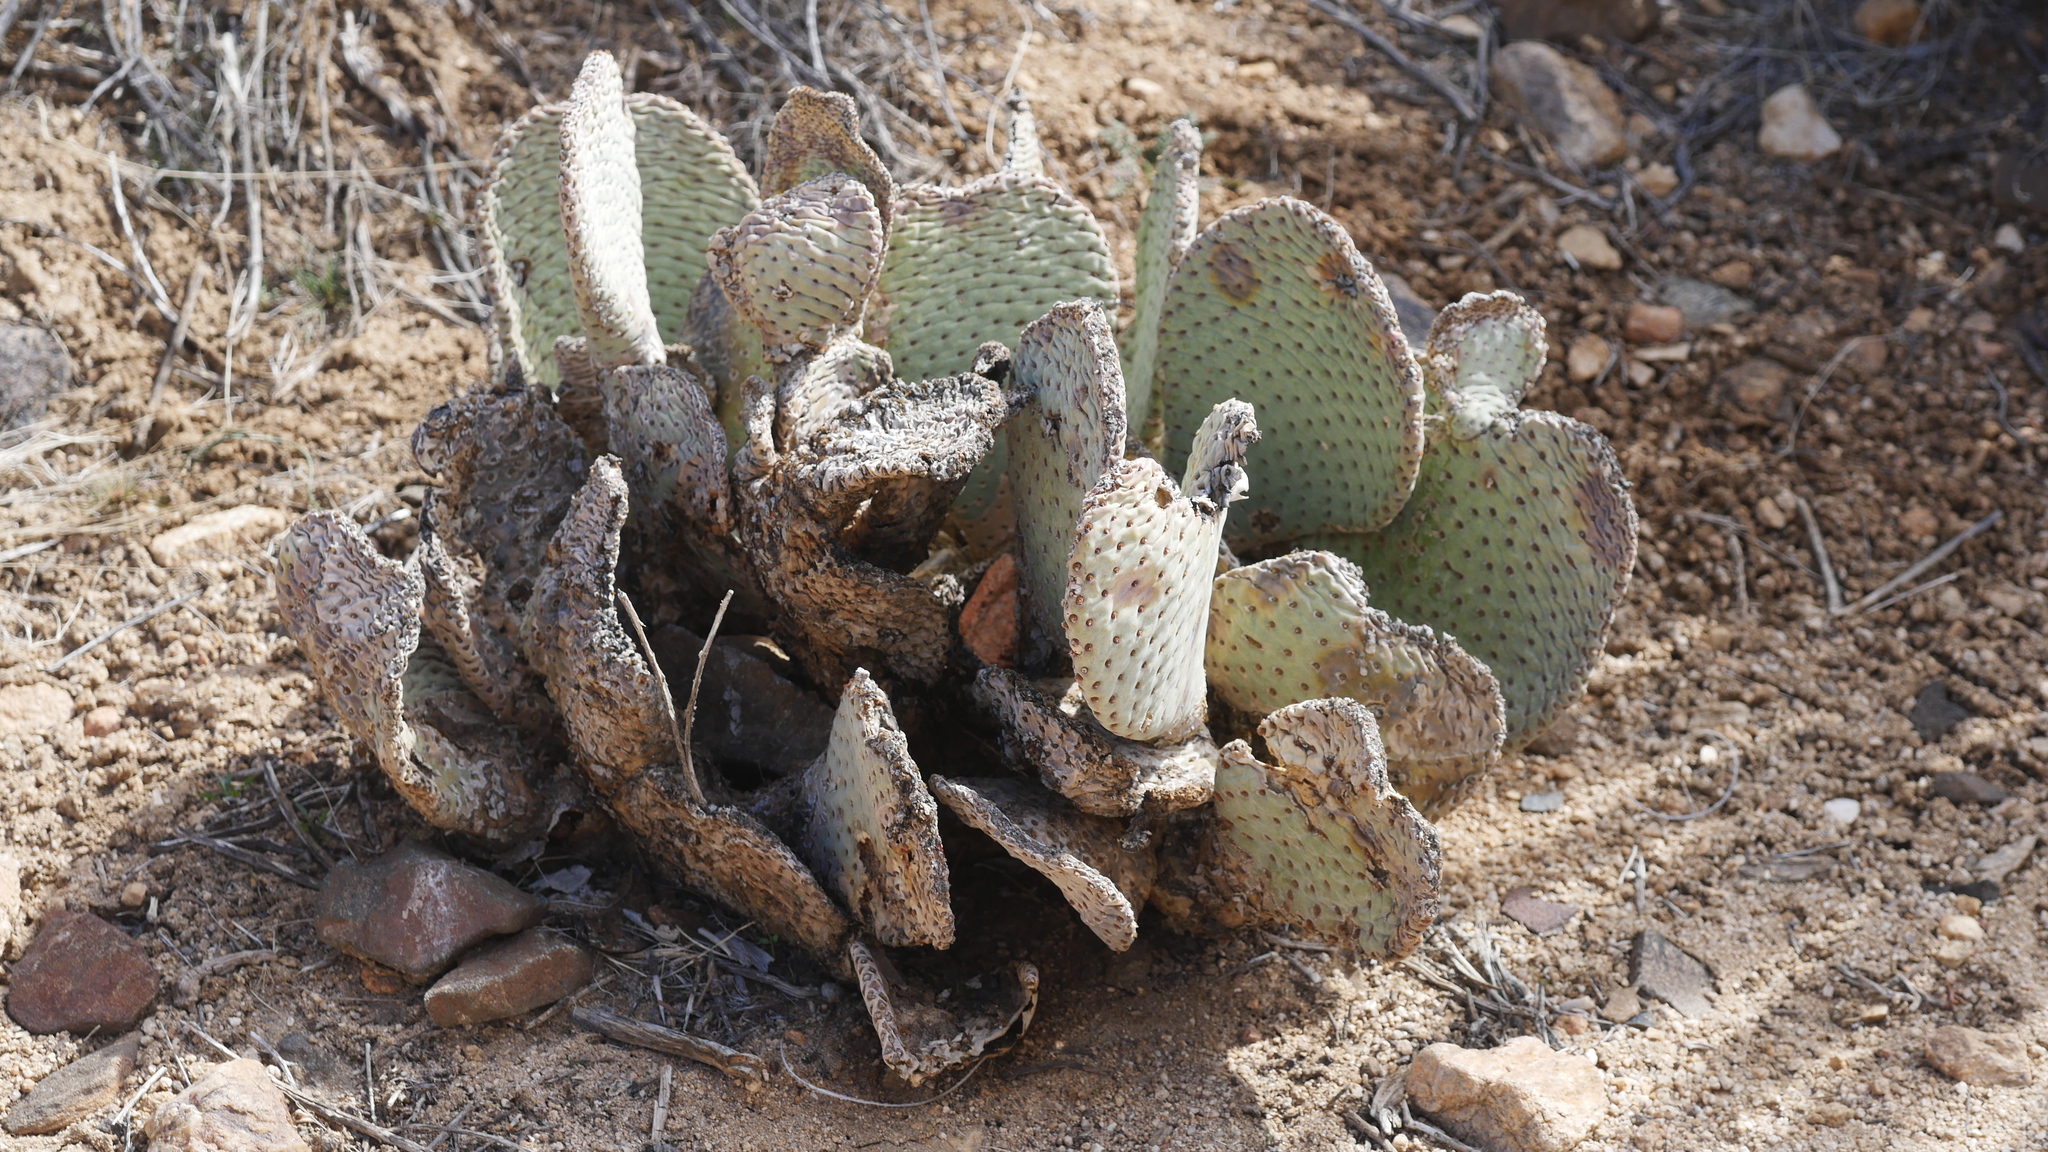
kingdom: Plantae
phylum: Tracheophyta
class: Magnoliopsida
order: Caryophyllales
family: Cactaceae
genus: Opuntia
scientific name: Opuntia basilaris
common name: Beavertail prickly-pear
